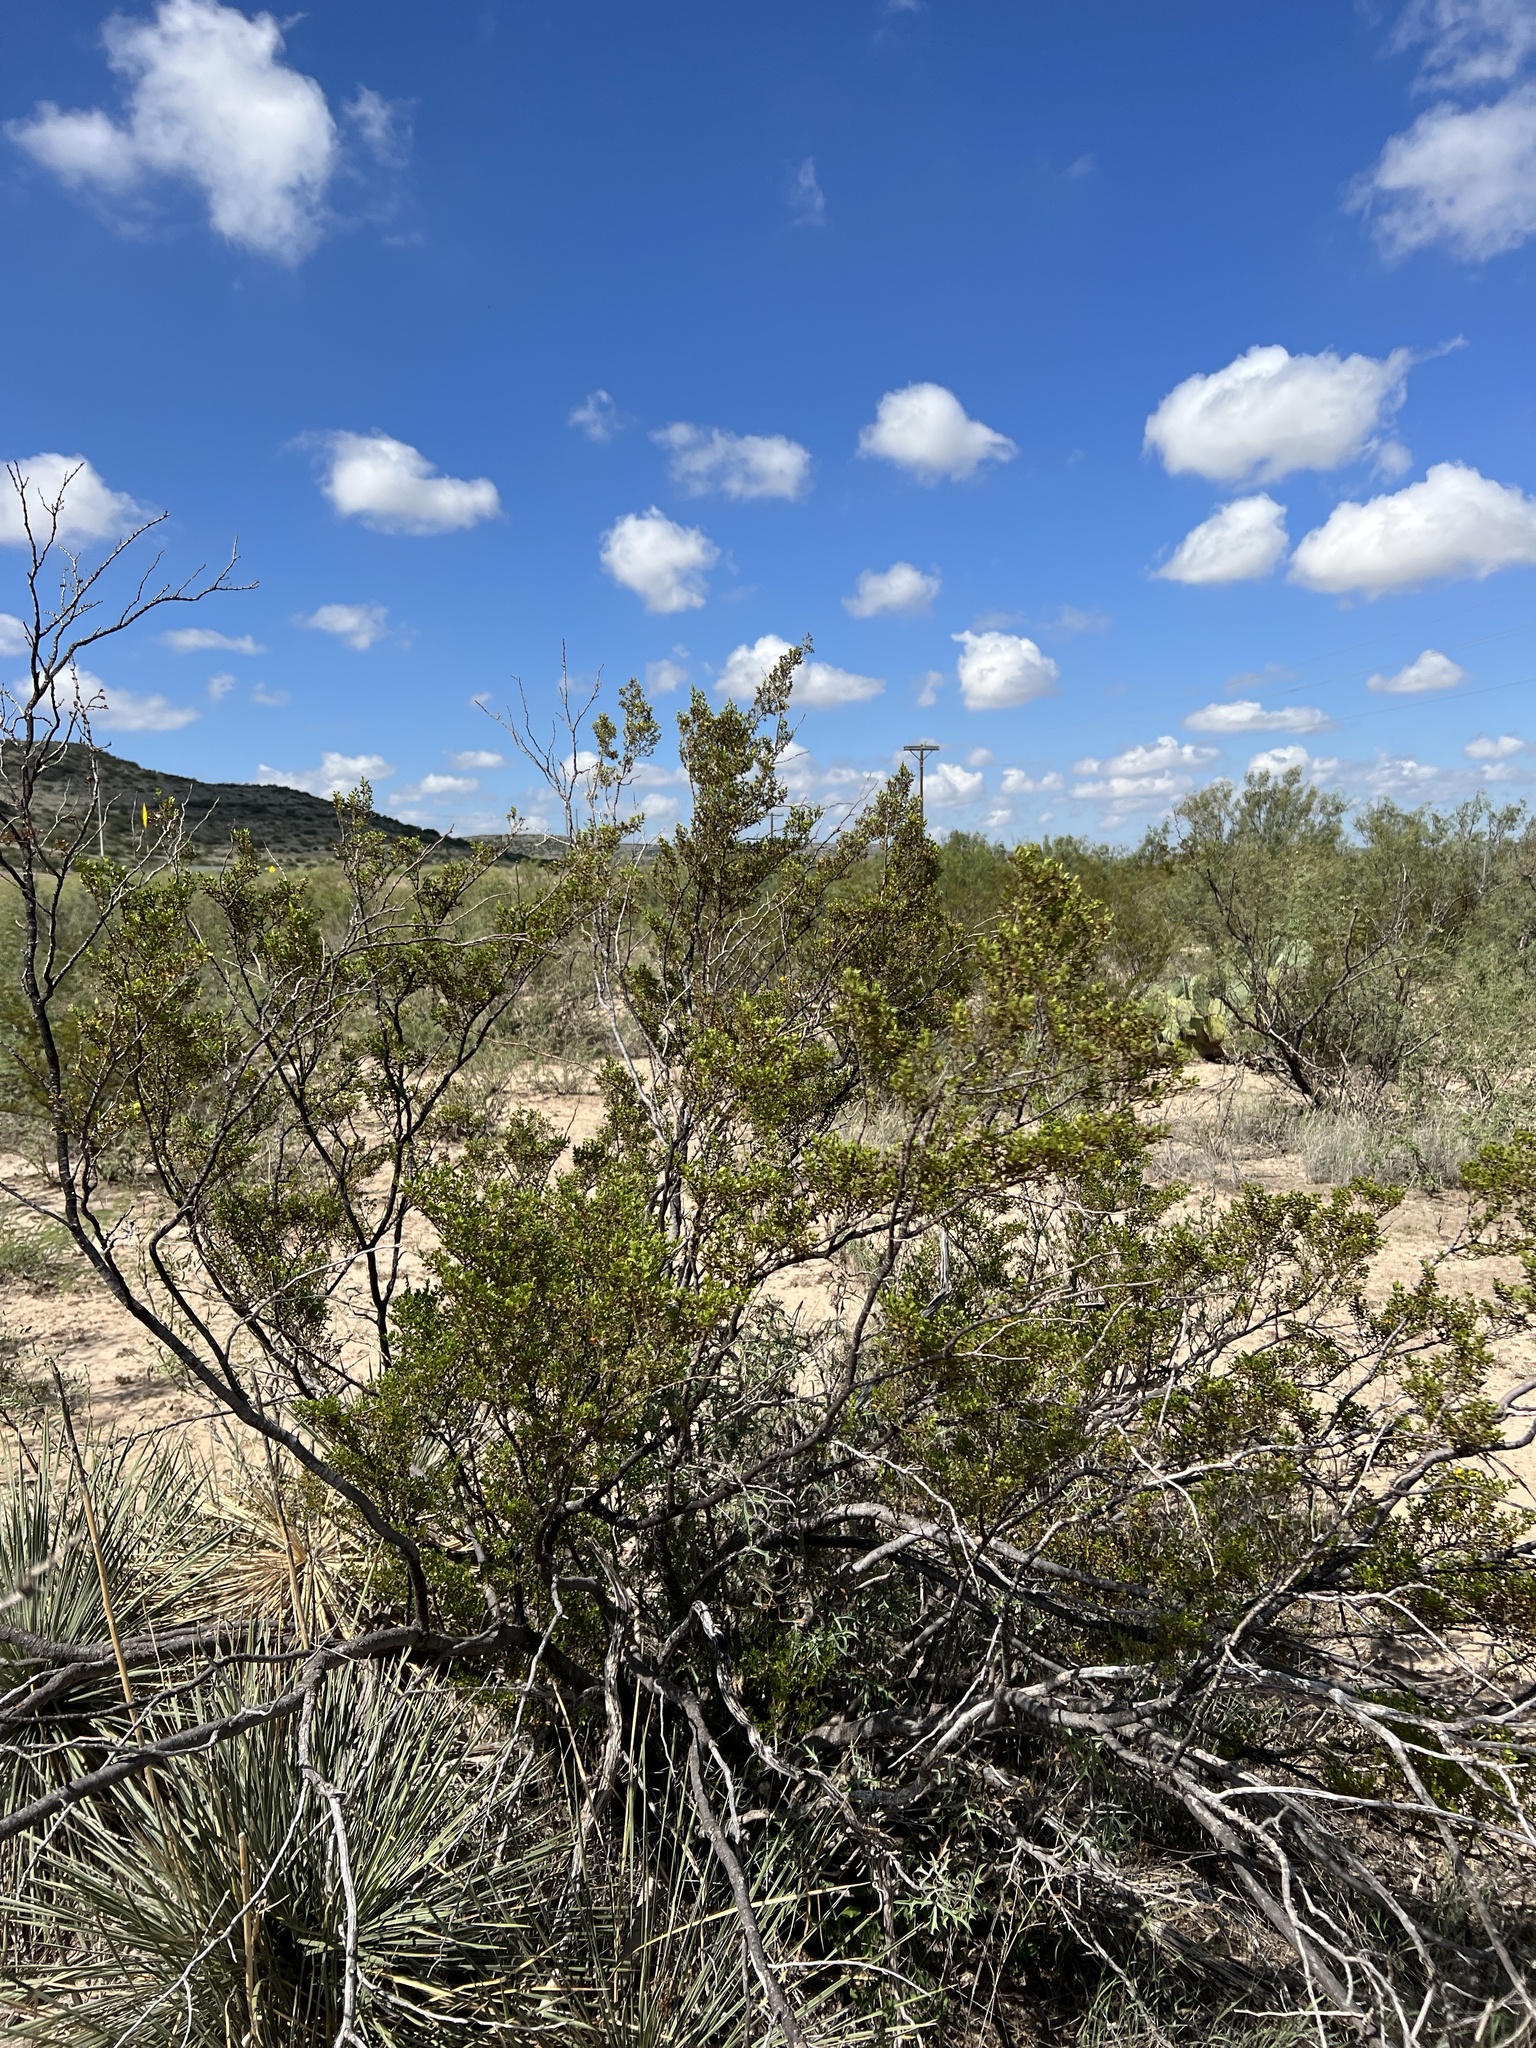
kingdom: Plantae
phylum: Tracheophyta
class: Magnoliopsida
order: Zygophyllales
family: Zygophyllaceae
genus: Larrea
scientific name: Larrea tridentata
